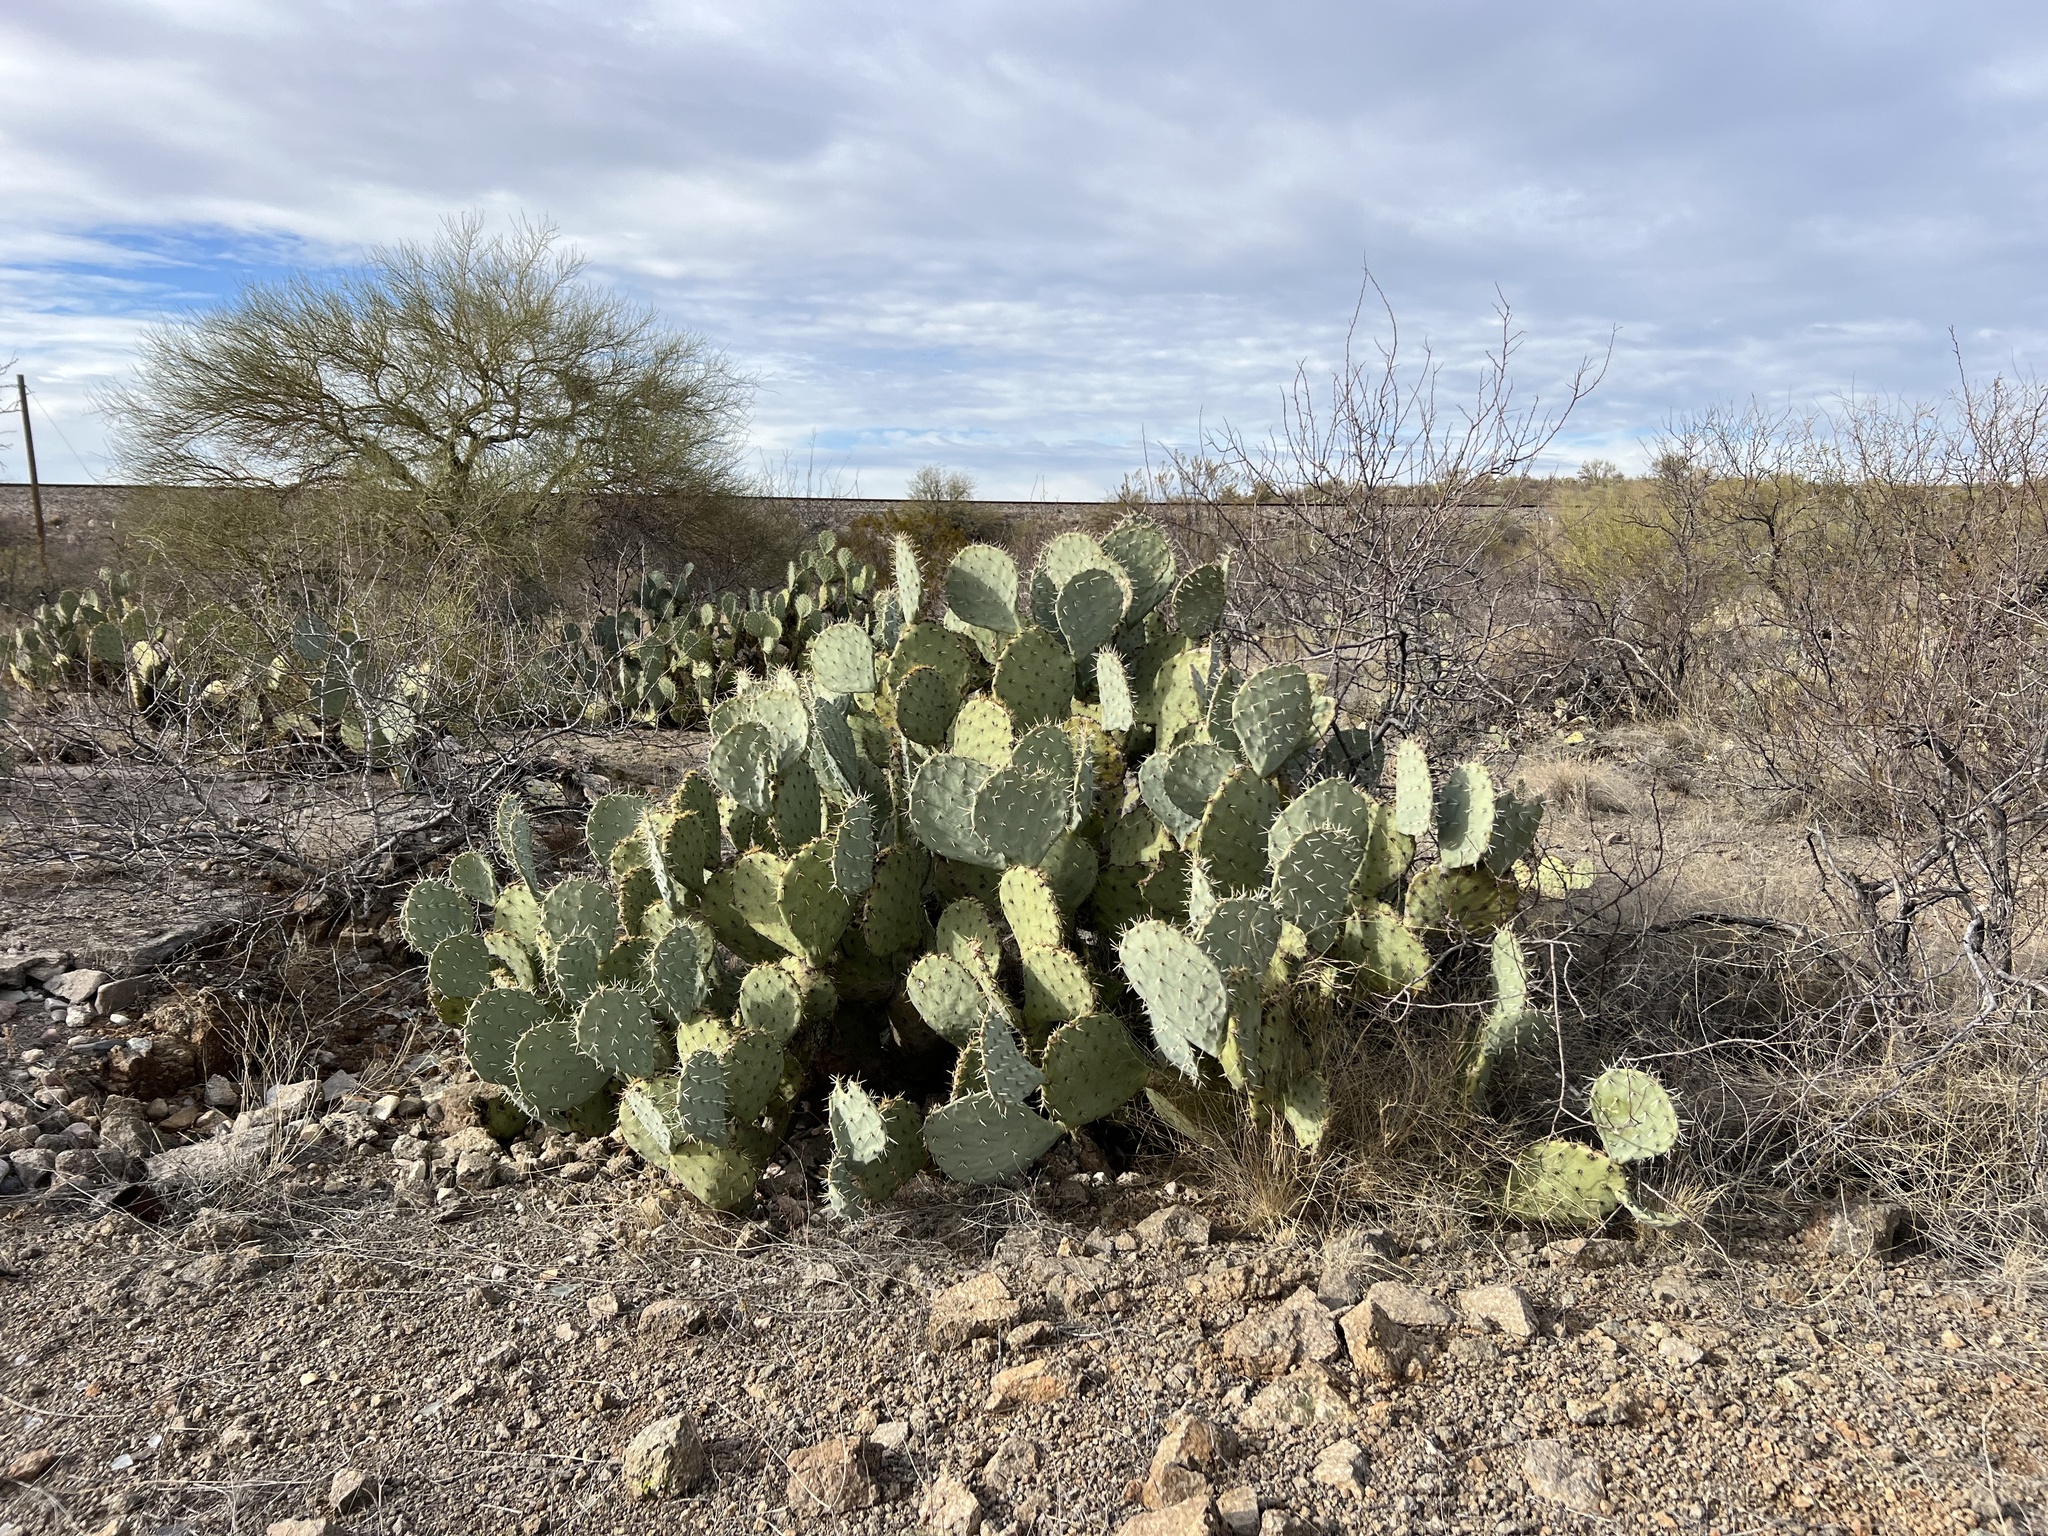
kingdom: Plantae
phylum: Tracheophyta
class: Magnoliopsida
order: Caryophyllales
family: Cactaceae
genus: Opuntia
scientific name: Opuntia engelmannii
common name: Cactus-apple
